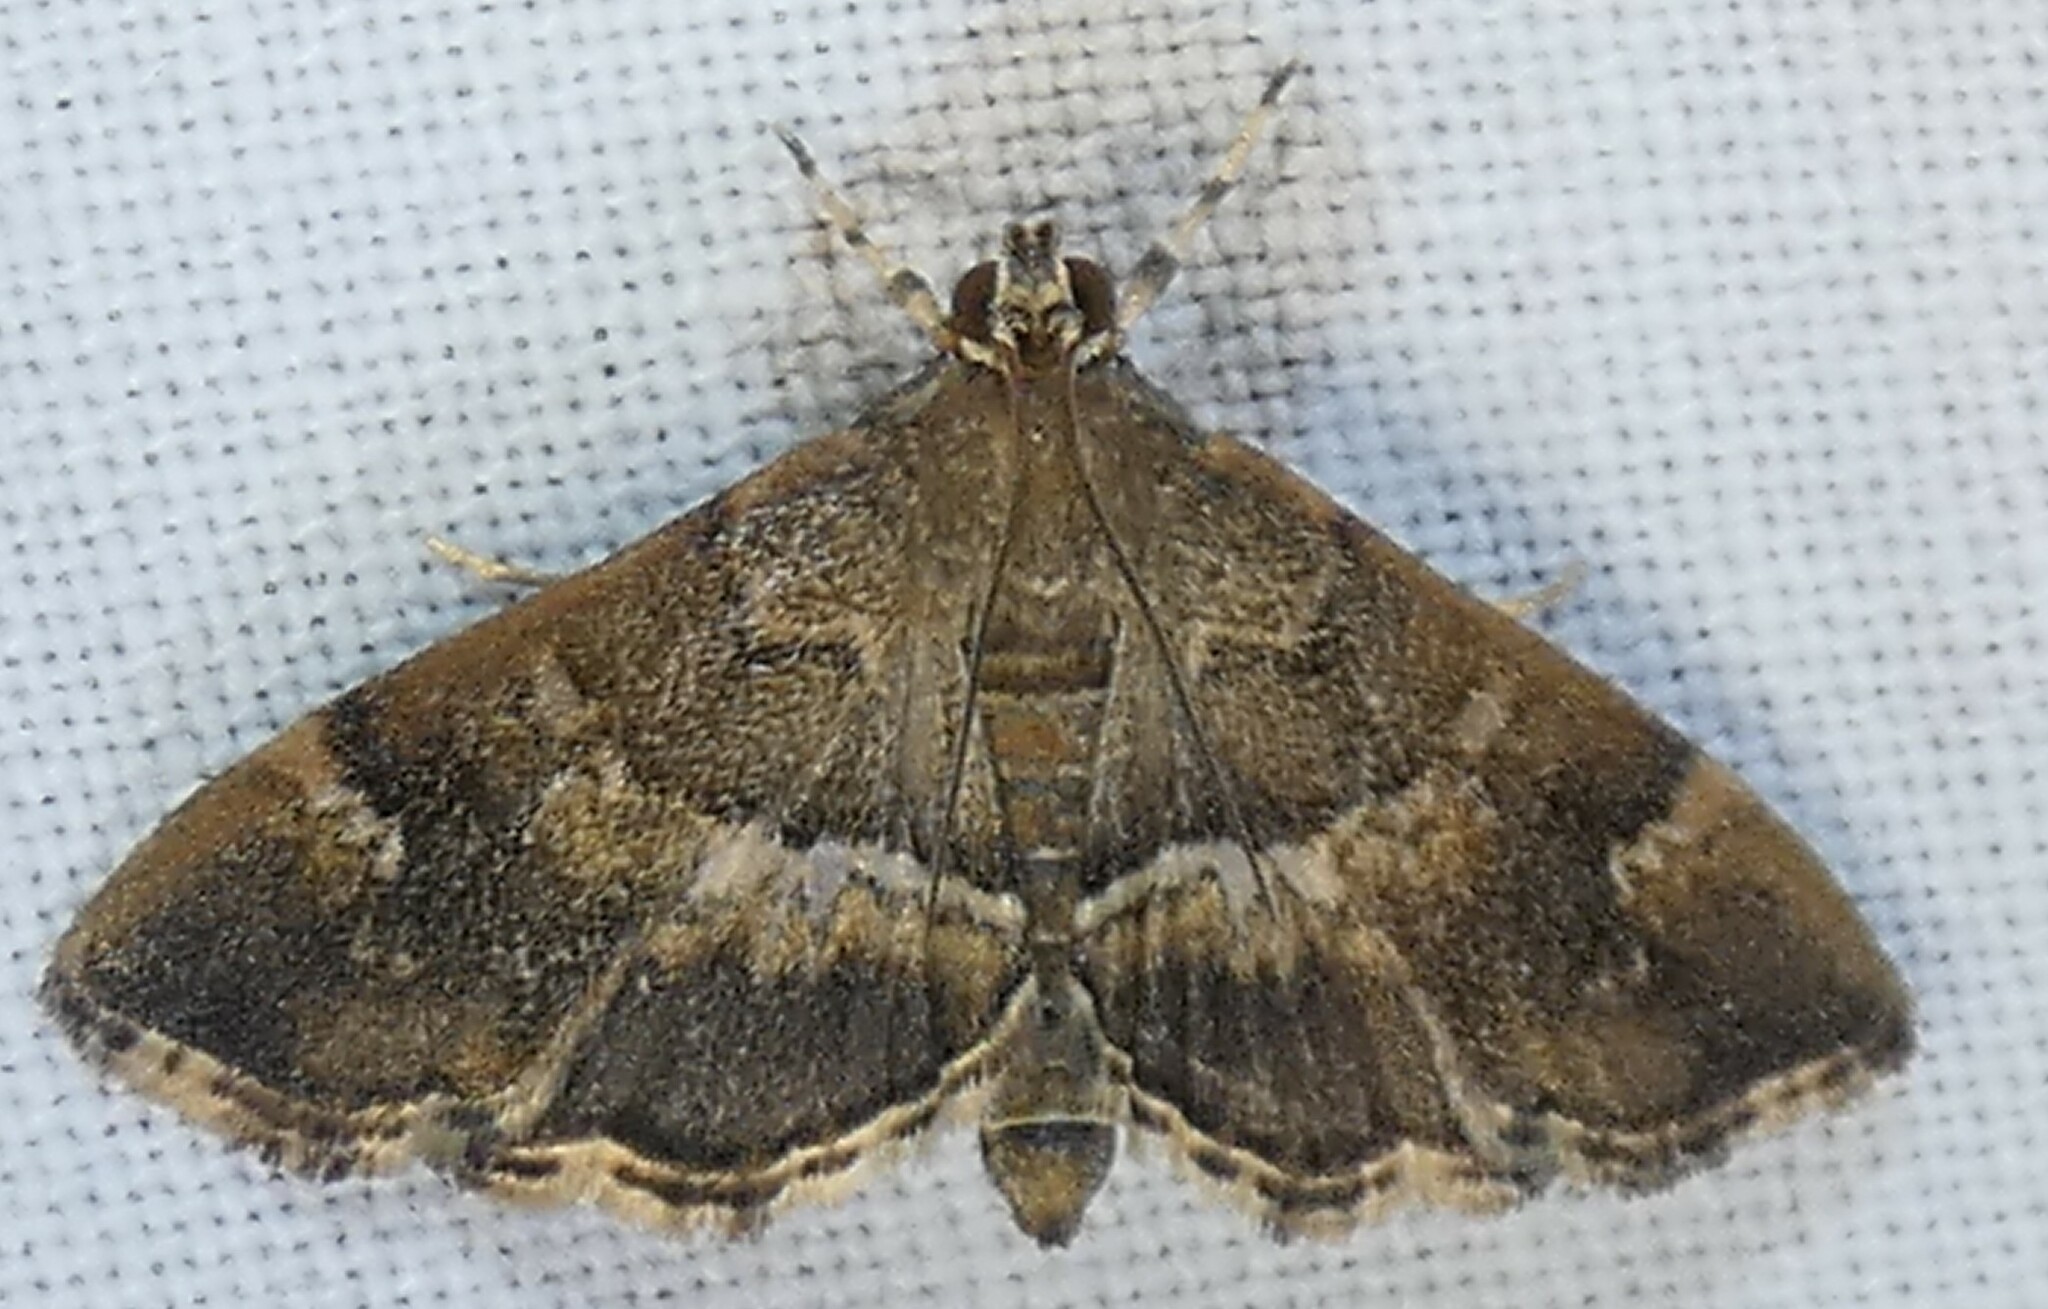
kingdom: Animalia
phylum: Arthropoda
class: Insecta
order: Lepidoptera
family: Crambidae
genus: Hymenia
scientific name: Hymenia perspectalis
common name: Spotted beet webworm
